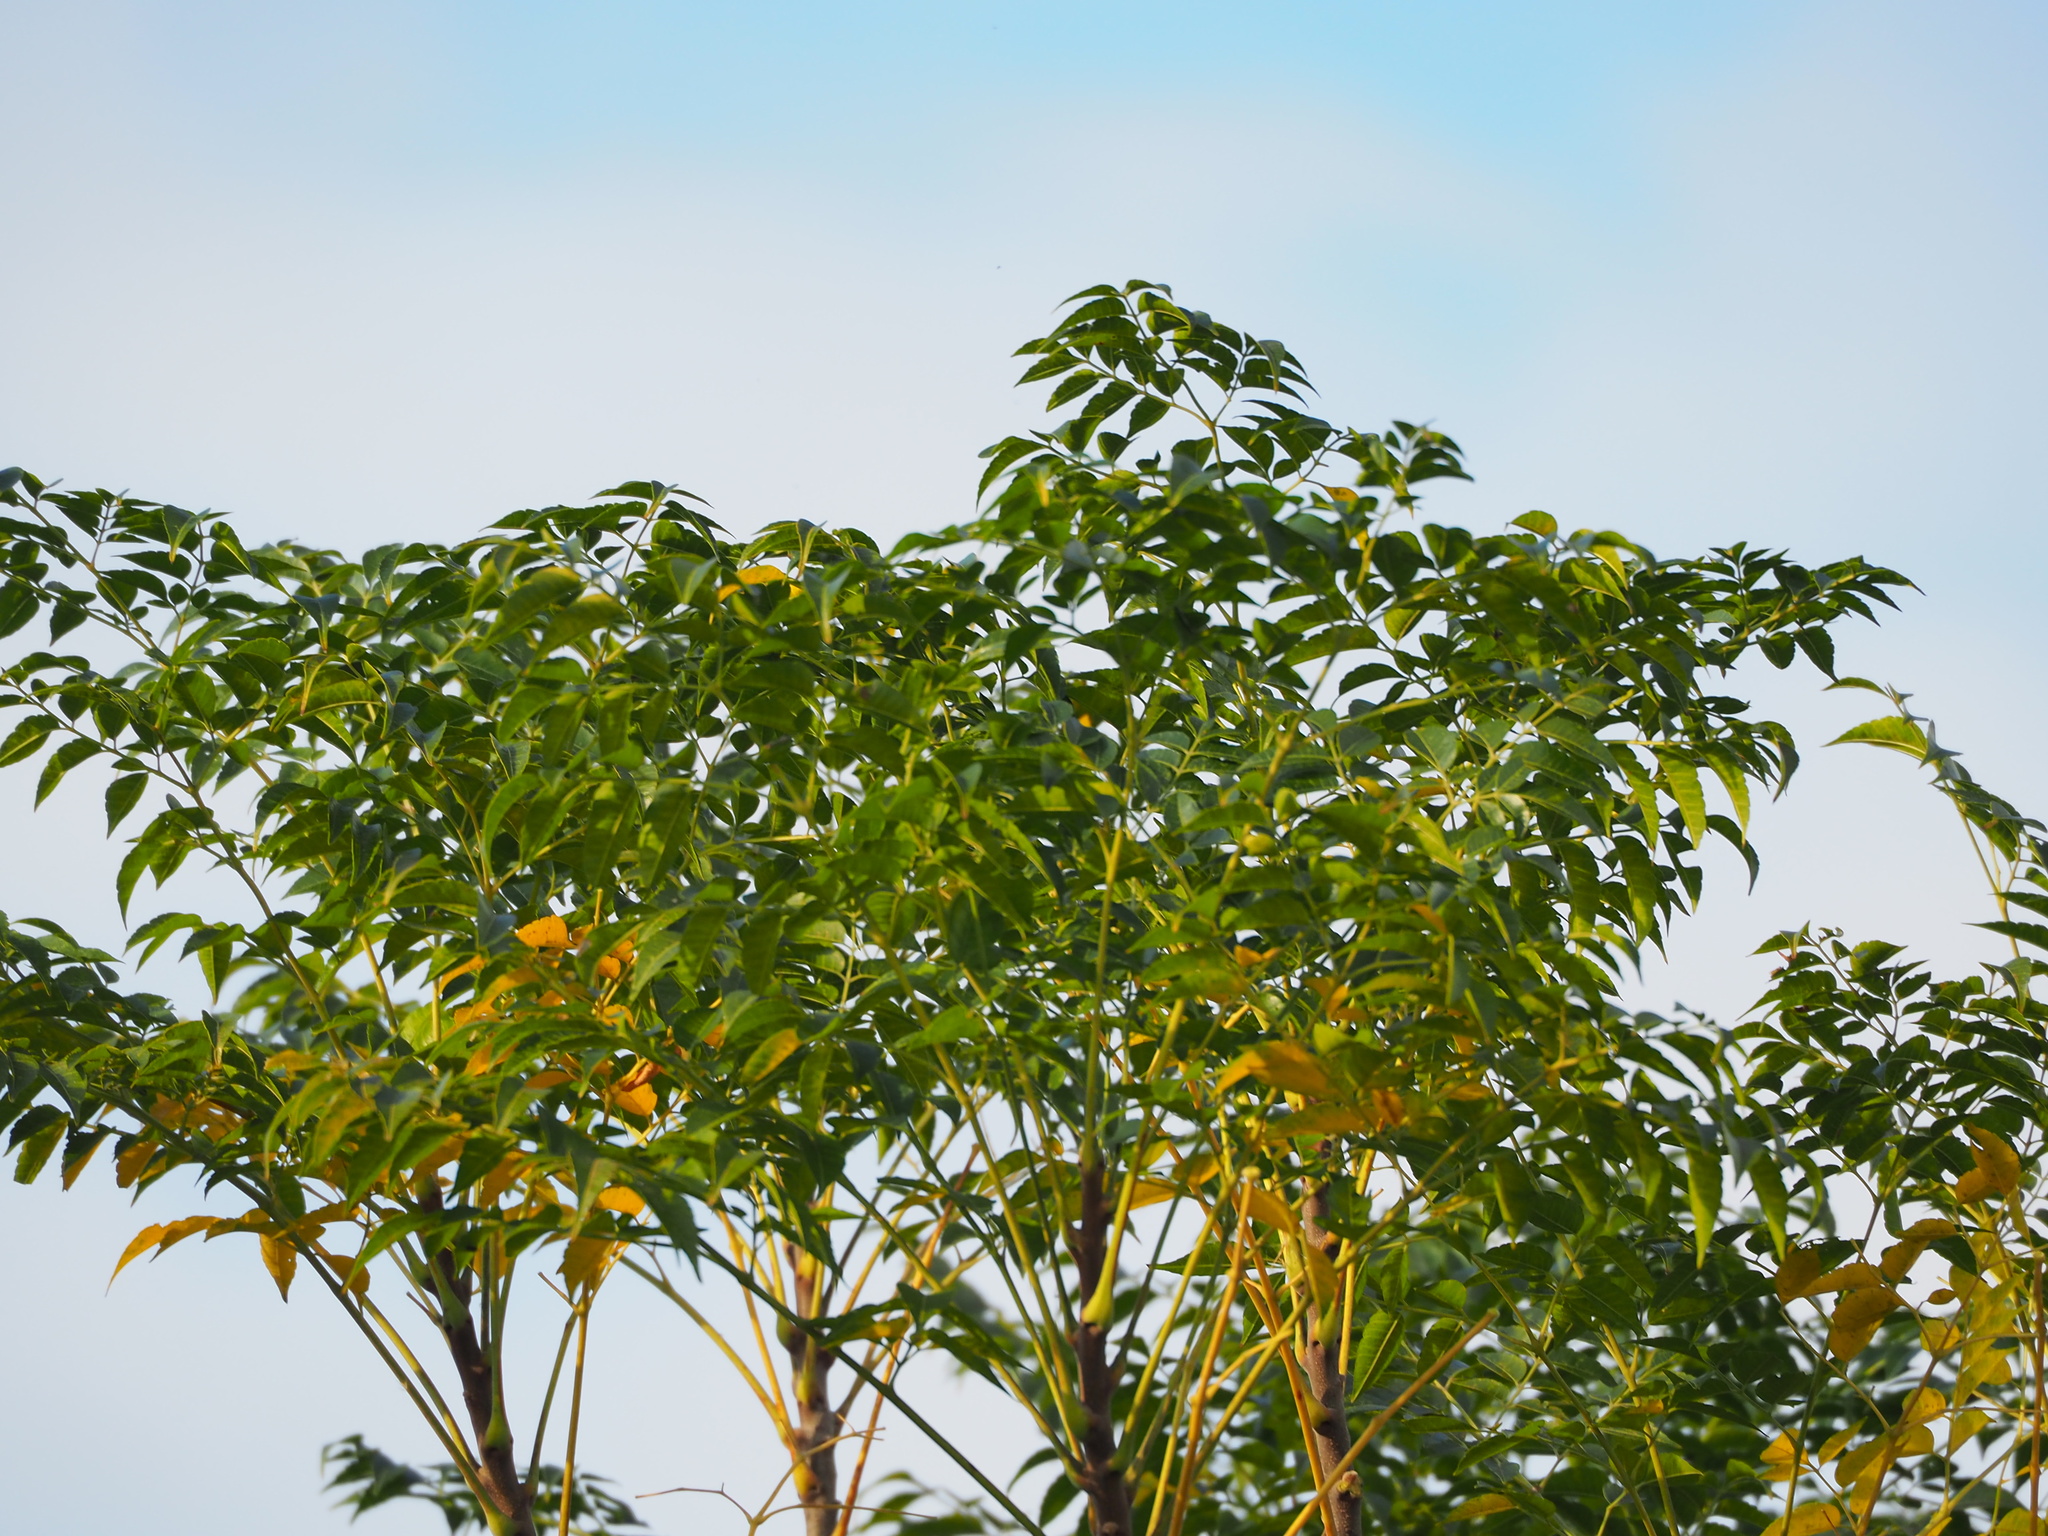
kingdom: Plantae
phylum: Tracheophyta
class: Magnoliopsida
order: Sapindales
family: Meliaceae
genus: Melia
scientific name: Melia azedarach
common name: Chinaberrytree
